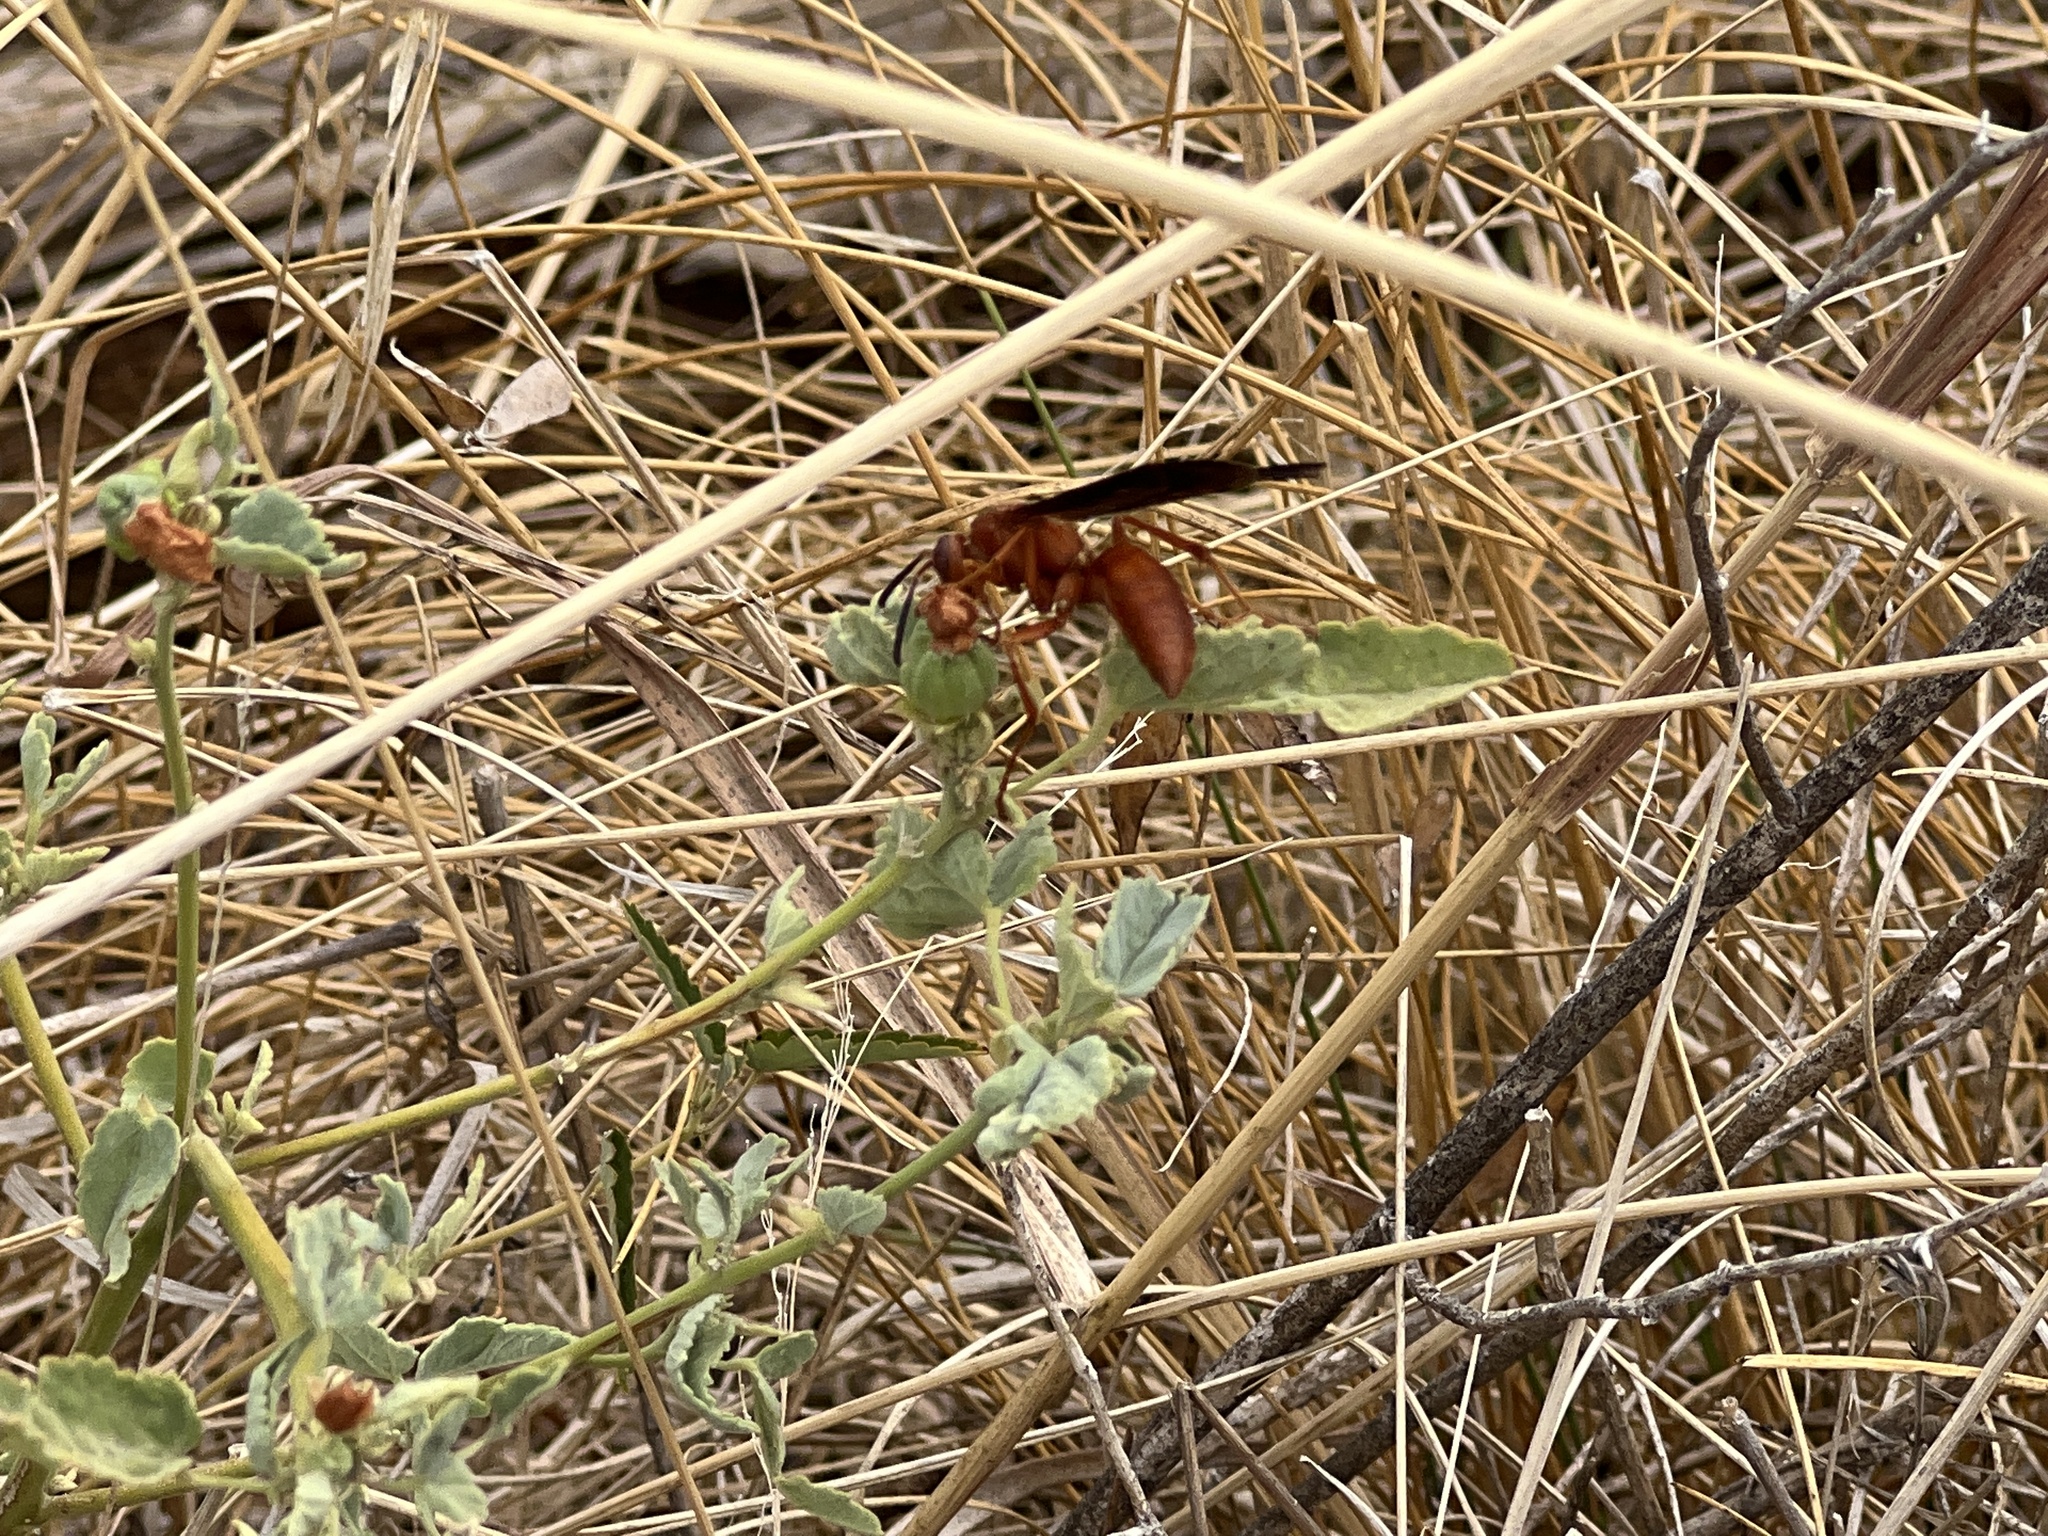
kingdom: Animalia
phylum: Arthropoda
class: Insecta
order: Hymenoptera
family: Vespidae
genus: Fuscopolistes
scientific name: Fuscopolistes
